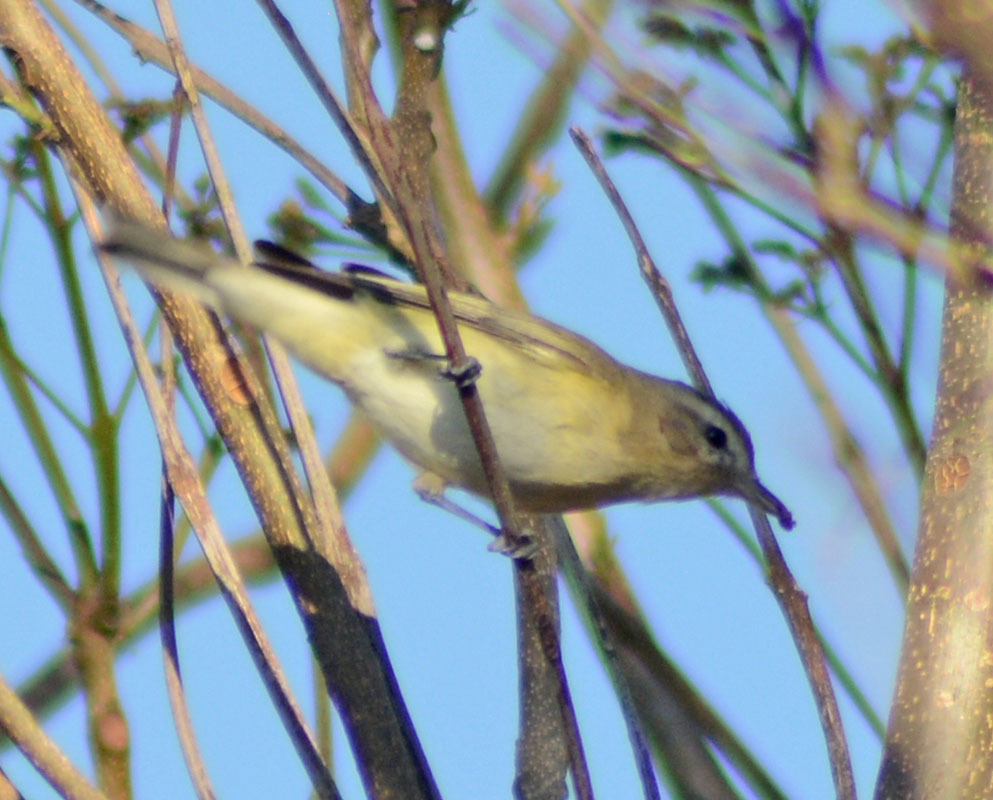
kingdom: Animalia
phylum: Chordata
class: Aves
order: Passeriformes
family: Vireonidae
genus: Vireo
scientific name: Vireo gilvus
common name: Warbling vireo
